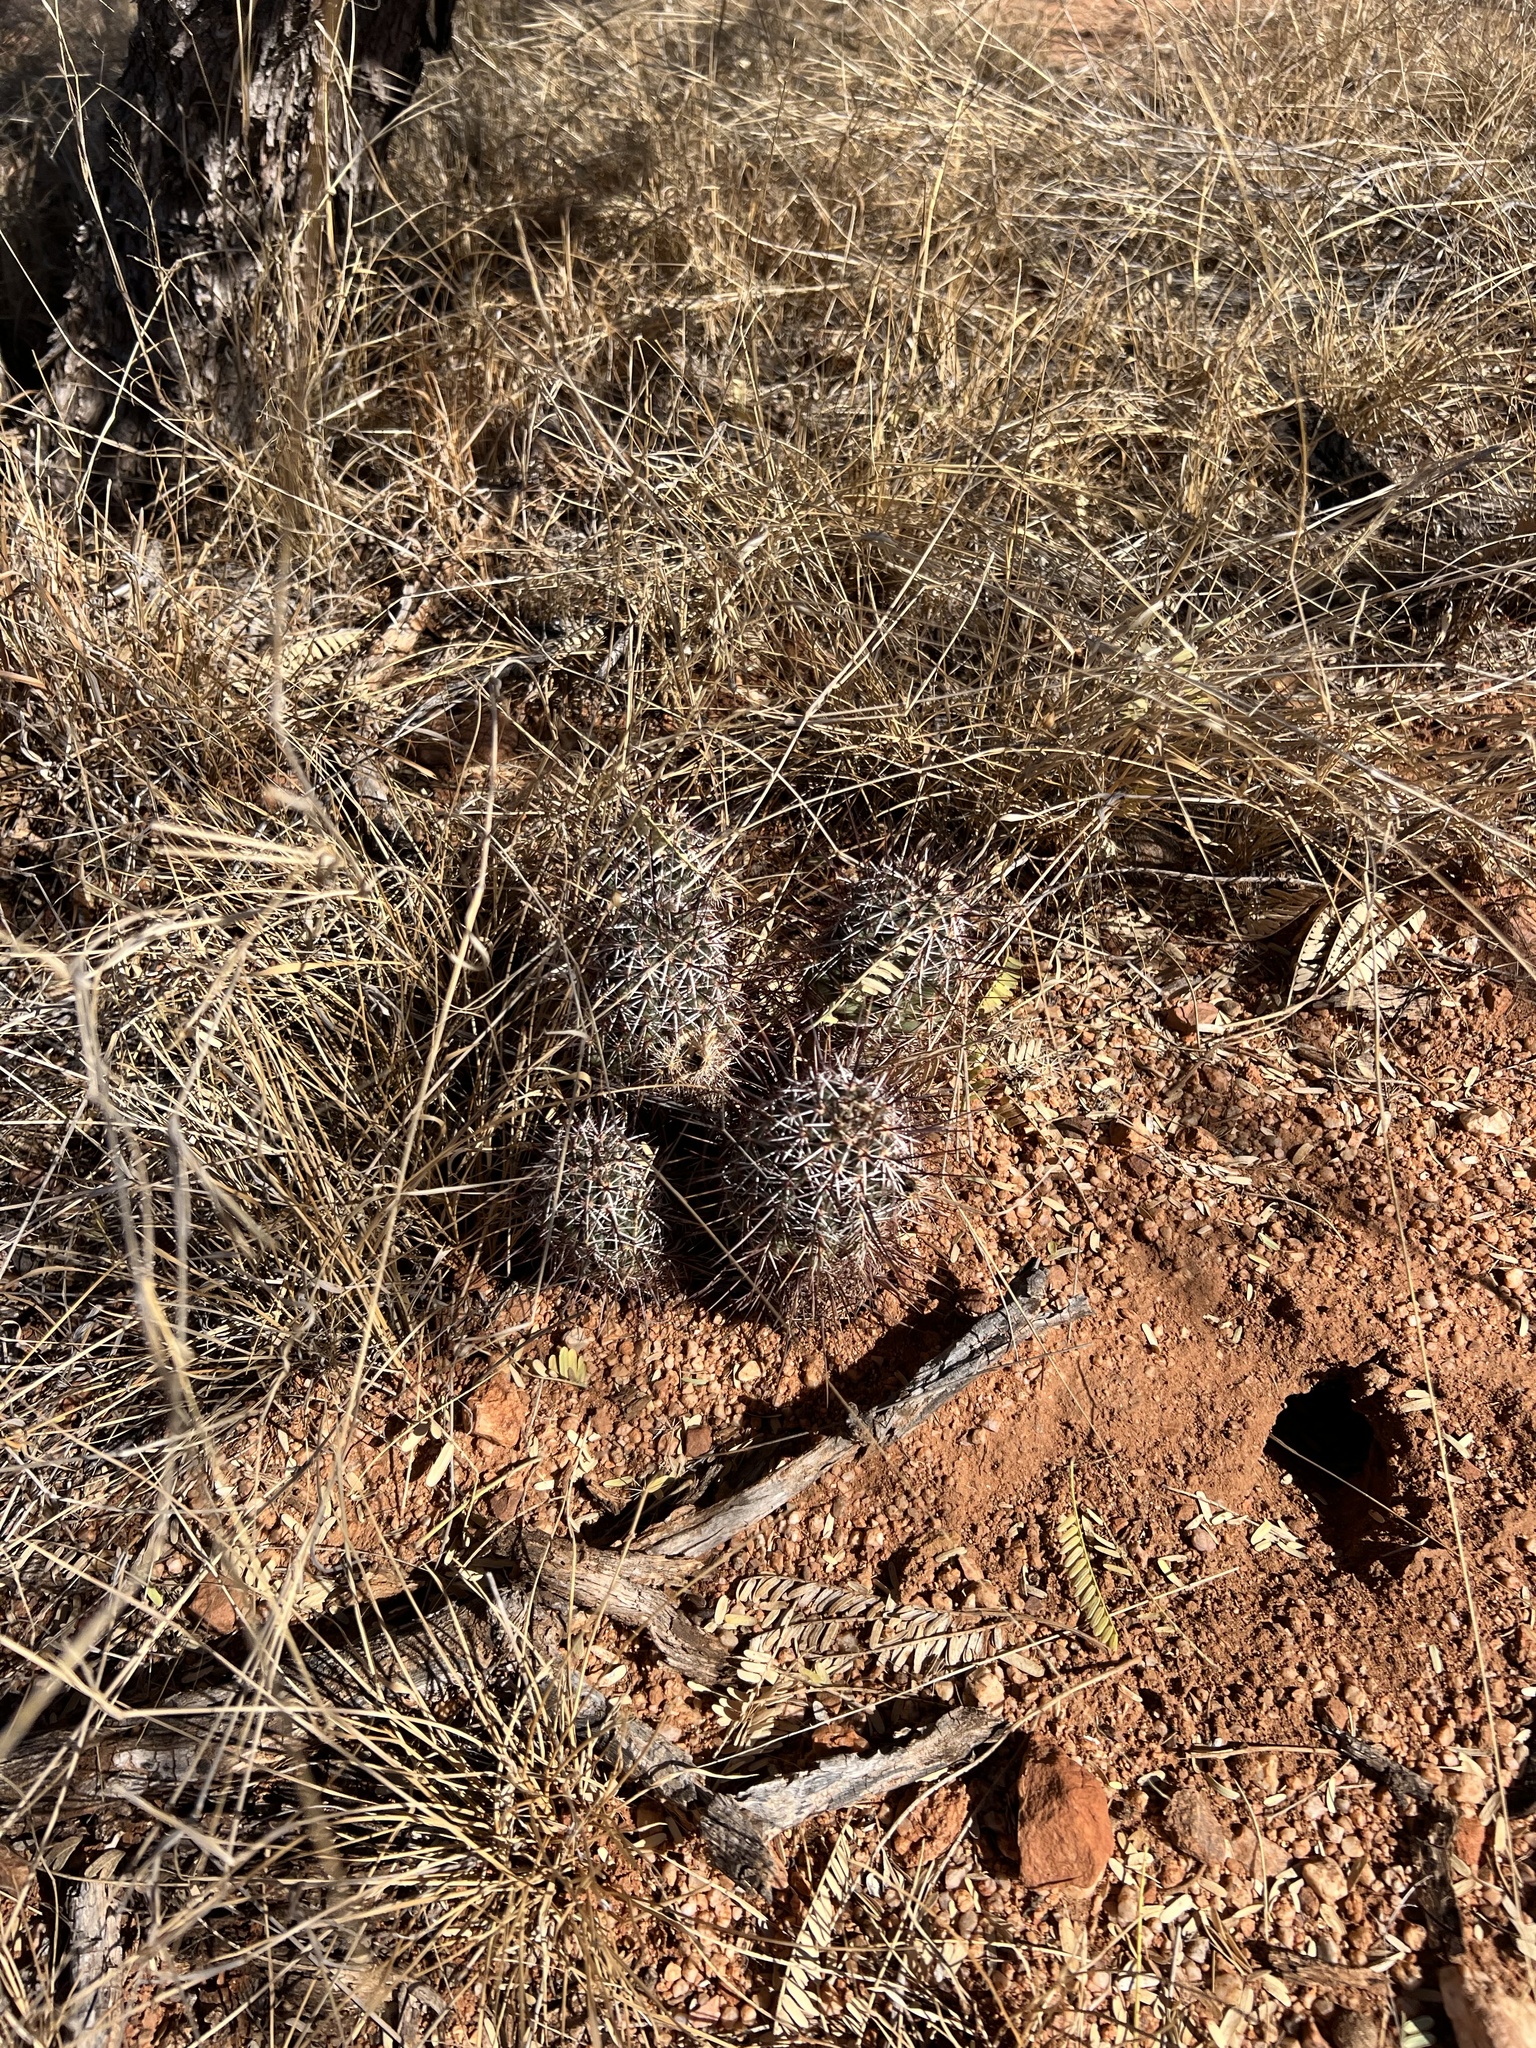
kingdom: Plantae
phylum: Tracheophyta
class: Magnoliopsida
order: Caryophyllales
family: Cactaceae
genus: Echinocereus
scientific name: Echinocereus fasciculatus
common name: Bundle hedgehog
